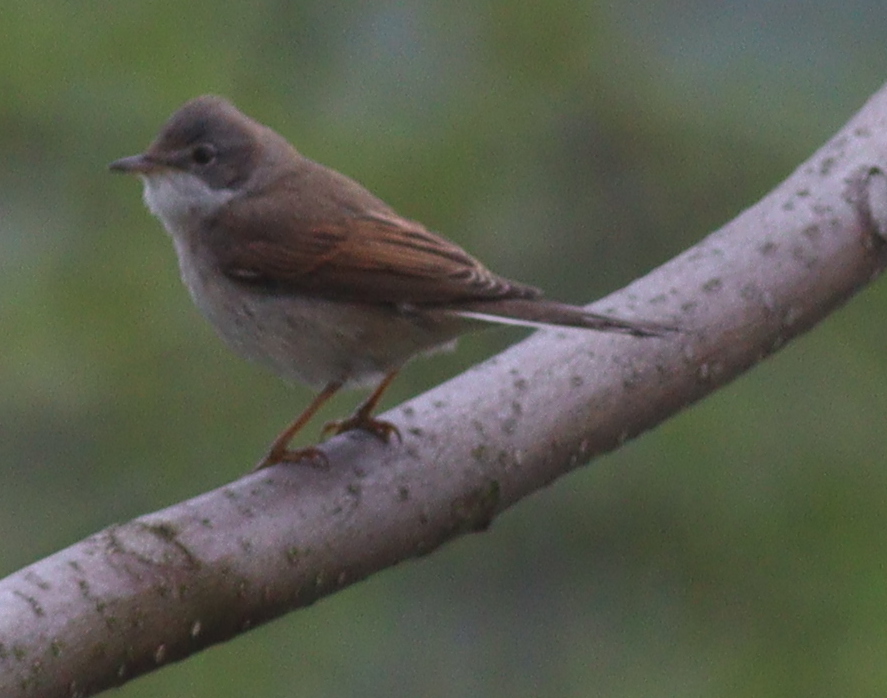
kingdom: Animalia
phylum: Chordata
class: Aves
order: Passeriformes
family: Sylviidae
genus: Sylvia
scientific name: Sylvia communis
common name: Common whitethroat
